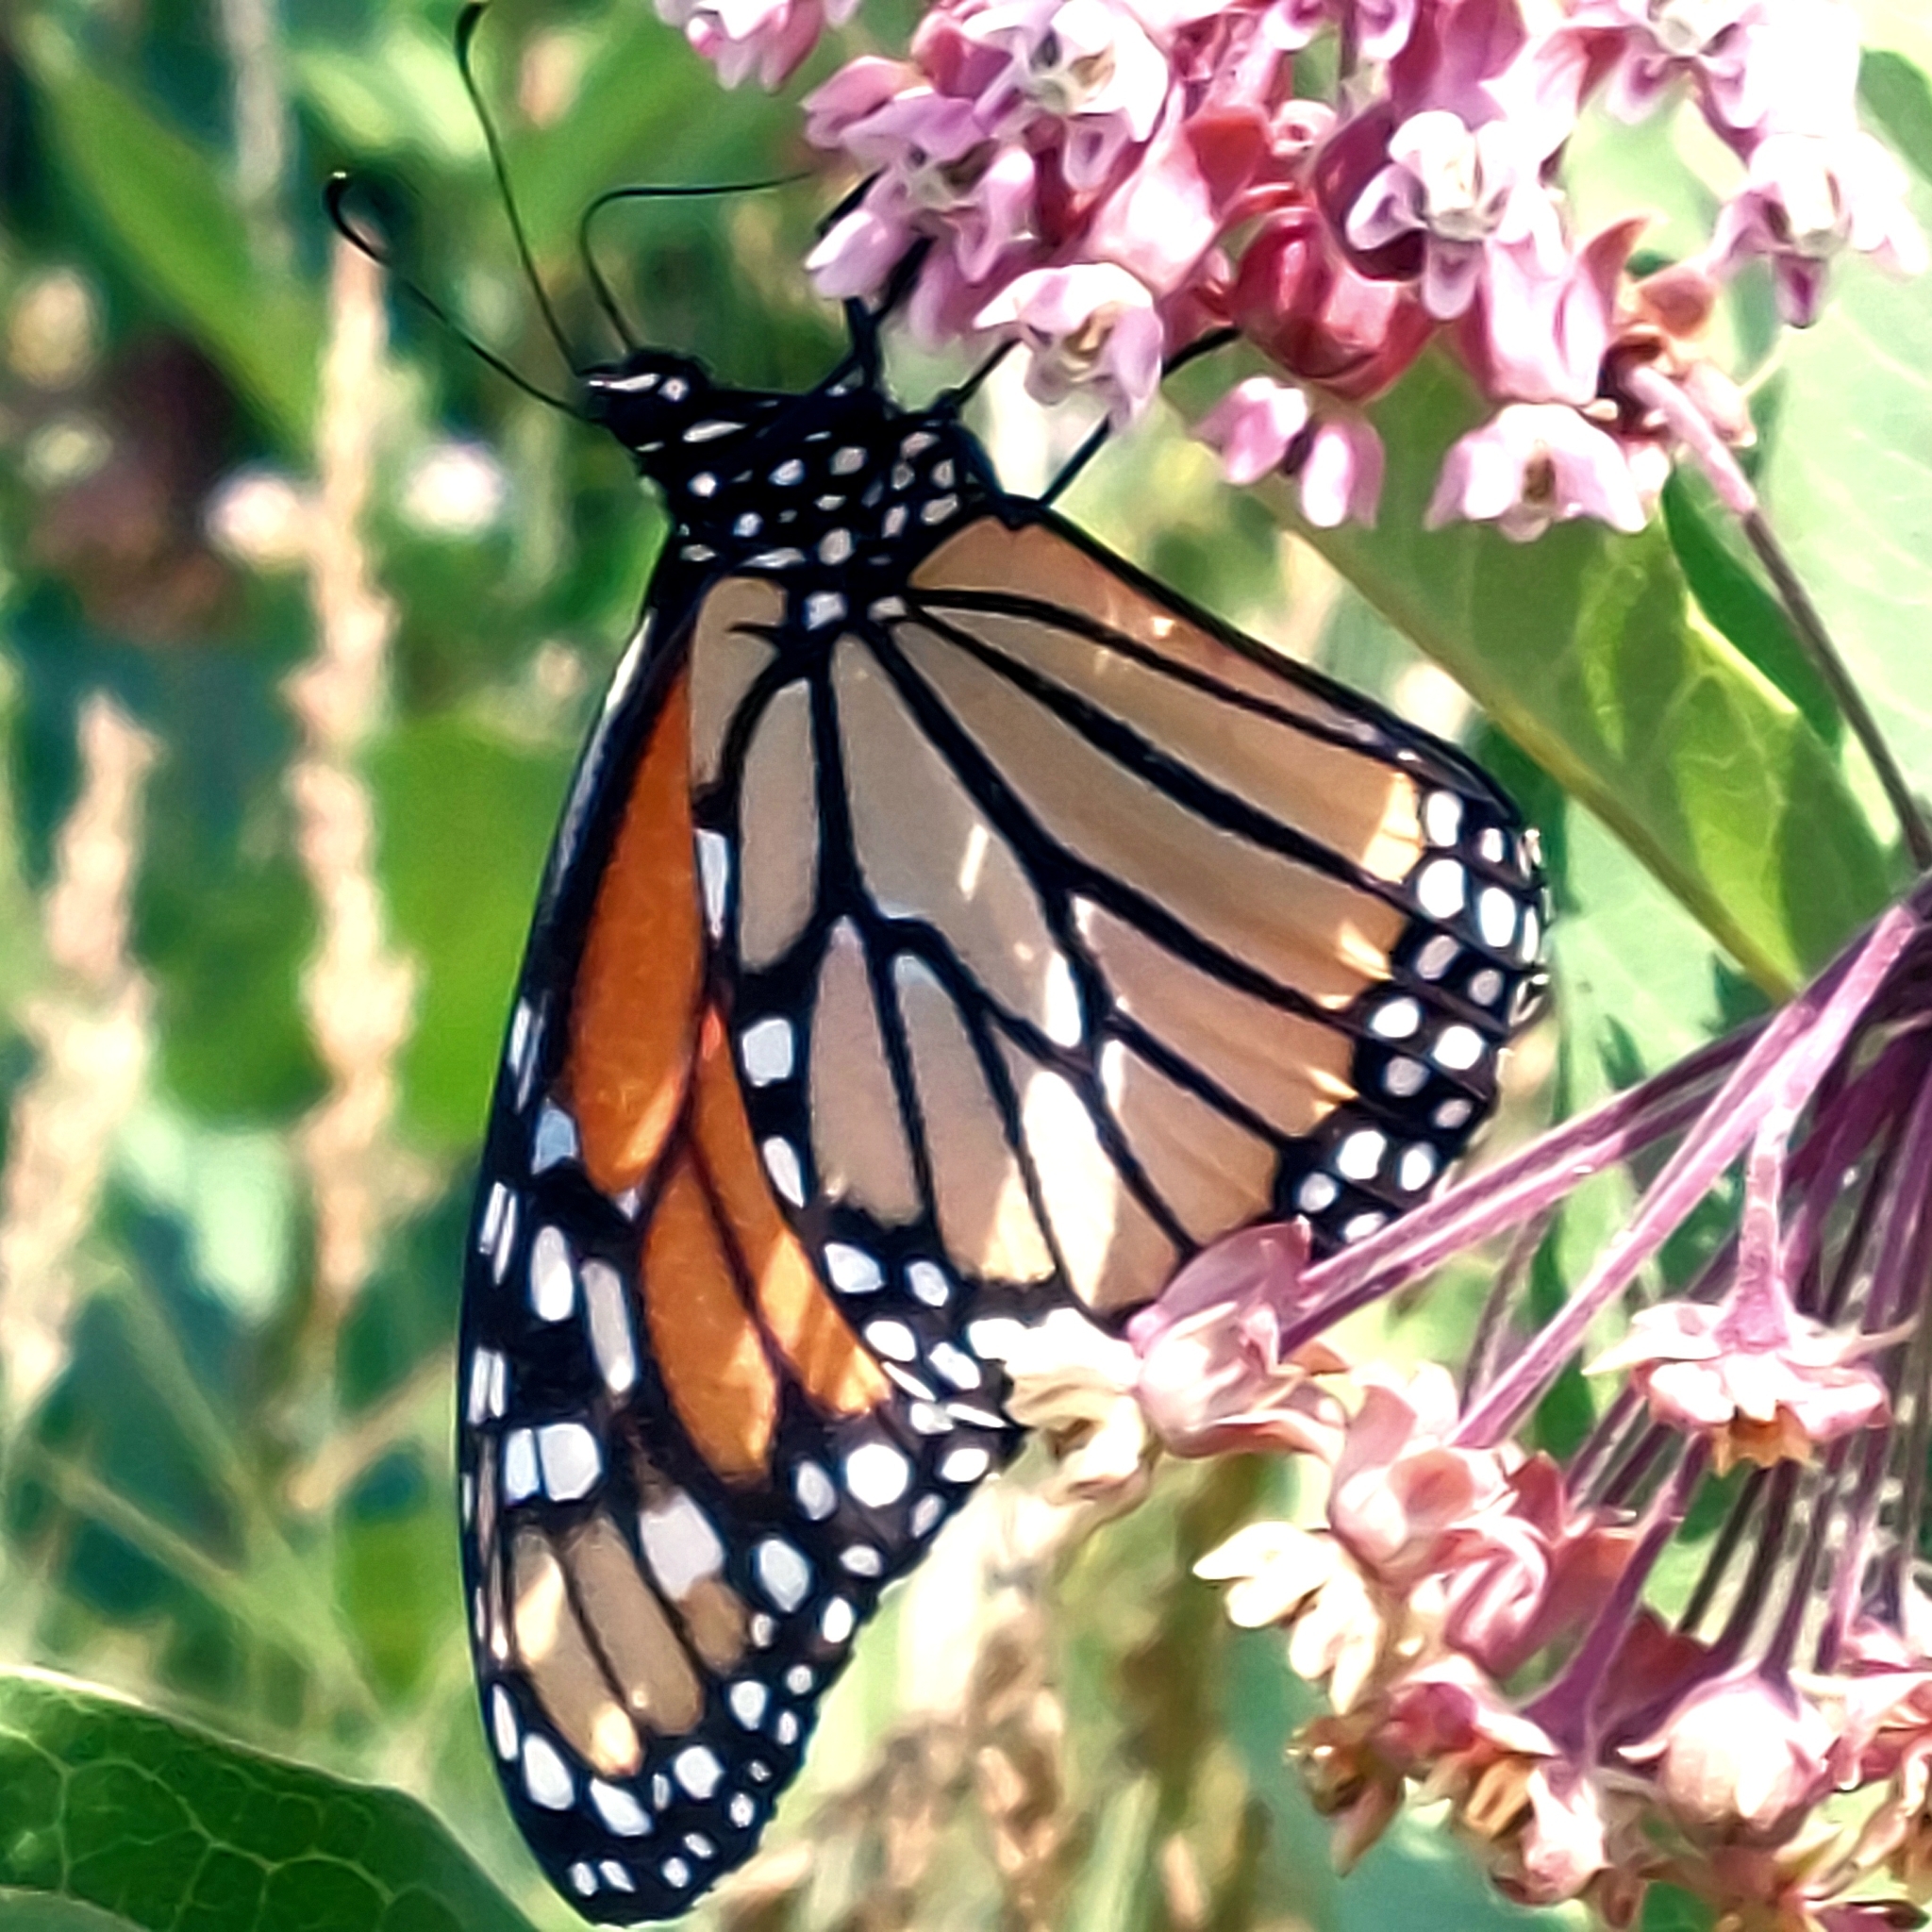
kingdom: Animalia
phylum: Arthropoda
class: Insecta
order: Lepidoptera
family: Nymphalidae
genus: Danaus
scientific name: Danaus plexippus
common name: Monarch
